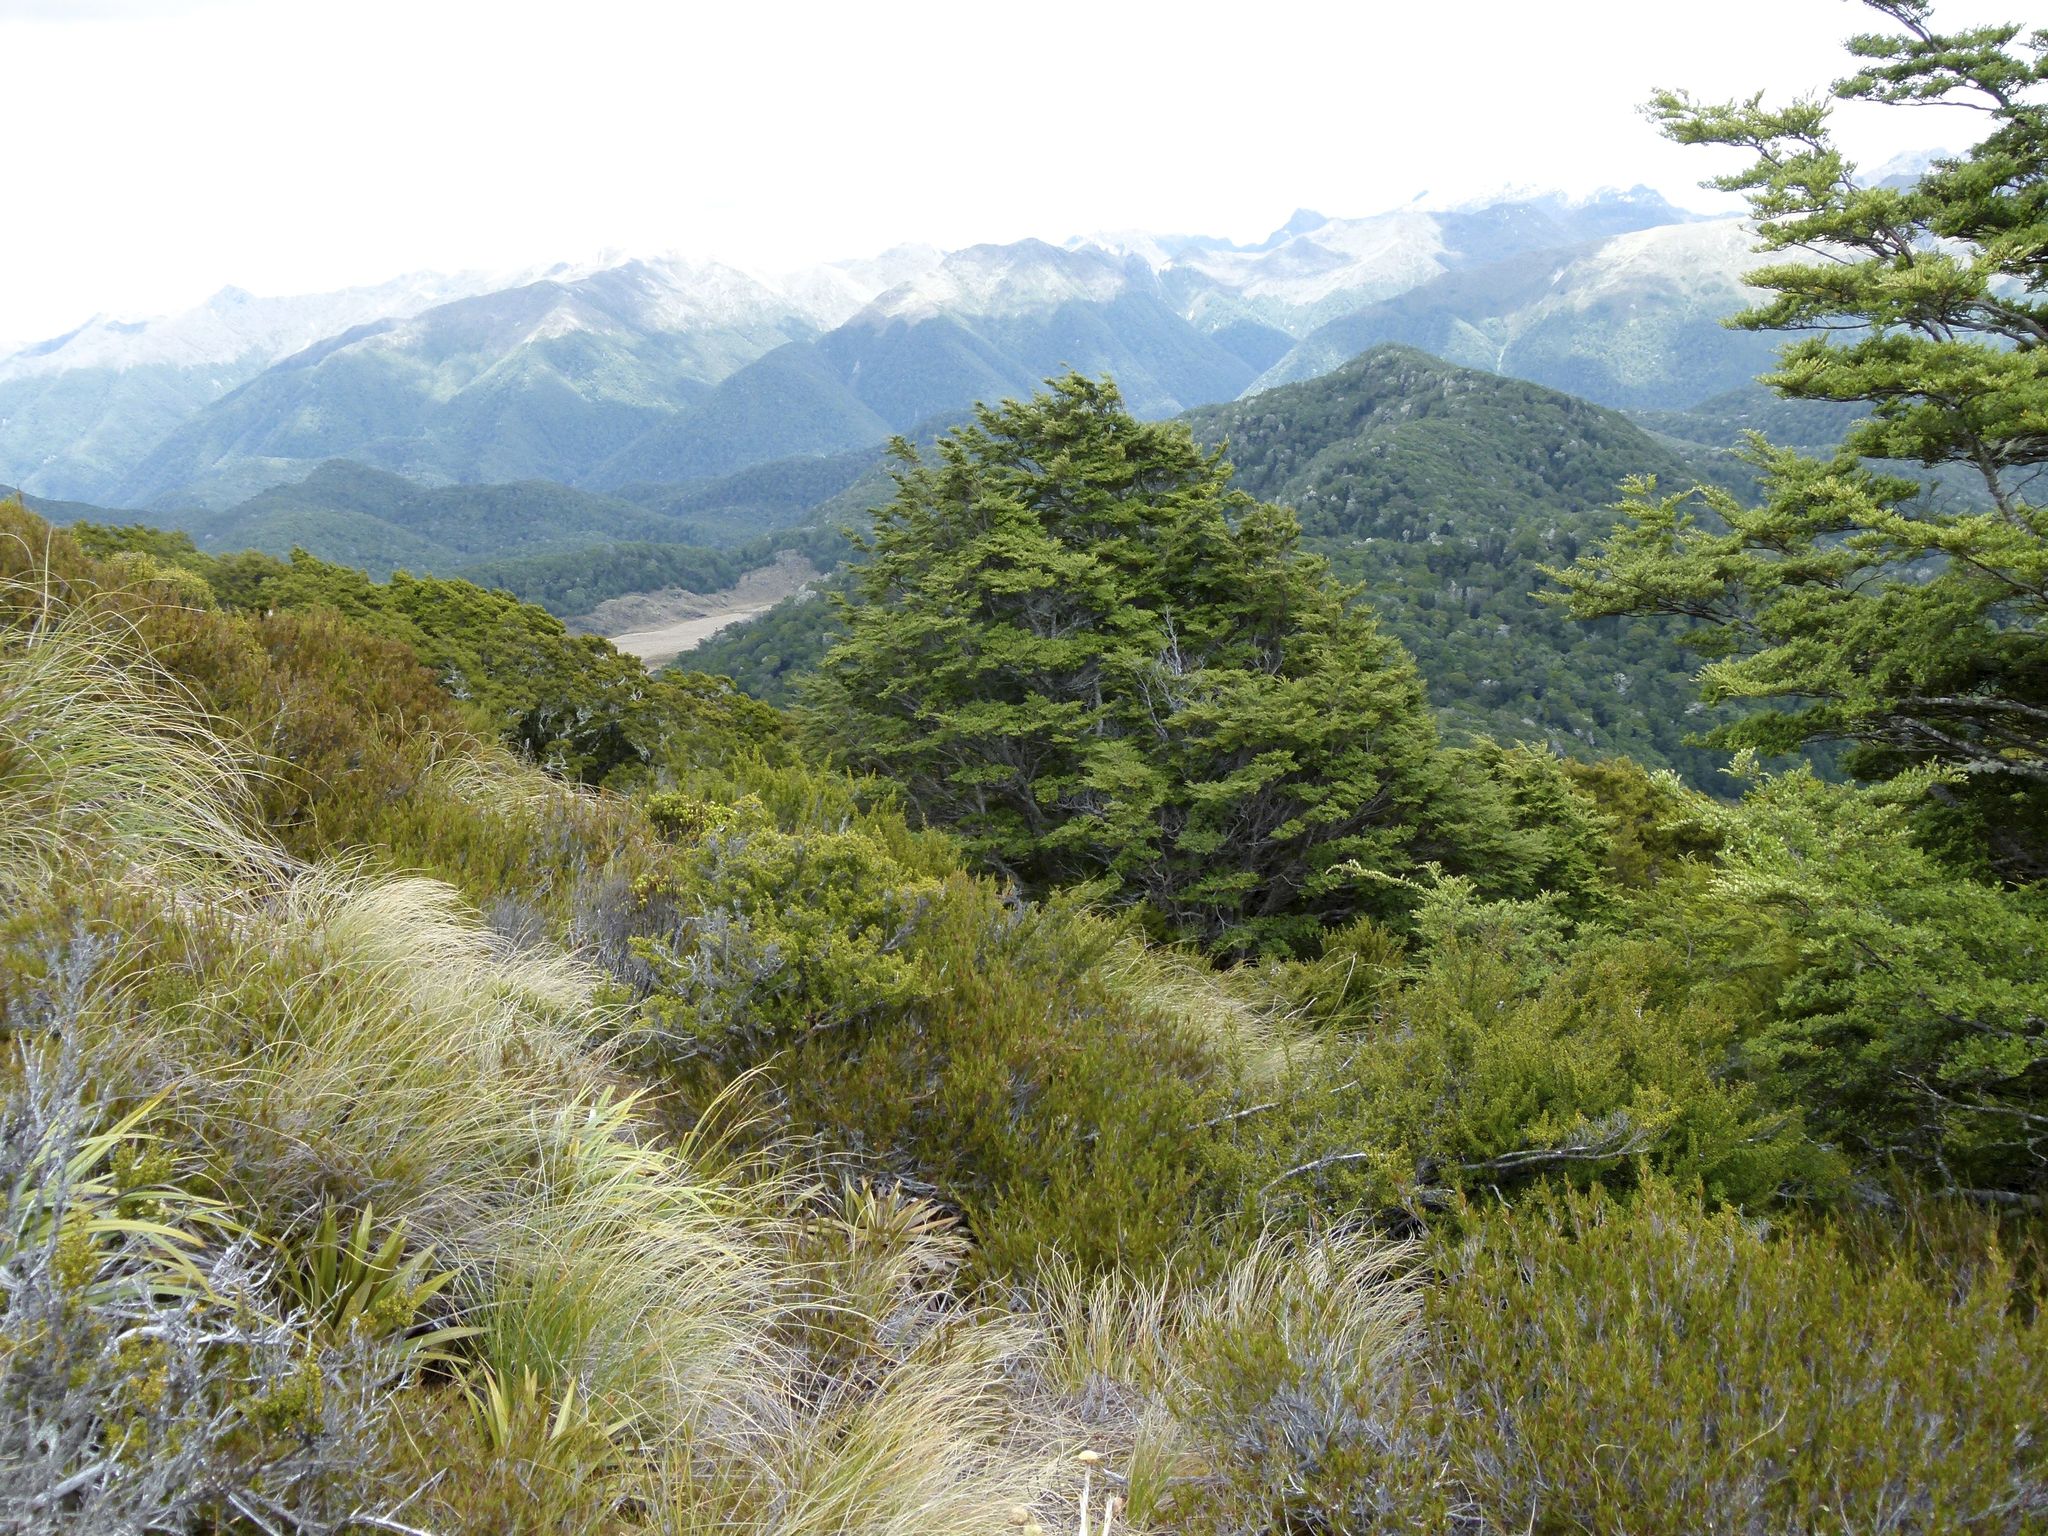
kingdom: Plantae
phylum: Tracheophyta
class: Magnoliopsida
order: Fagales
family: Nothofagaceae
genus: Nothofagus
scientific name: Nothofagus cliffortioides
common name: Mountain beech
